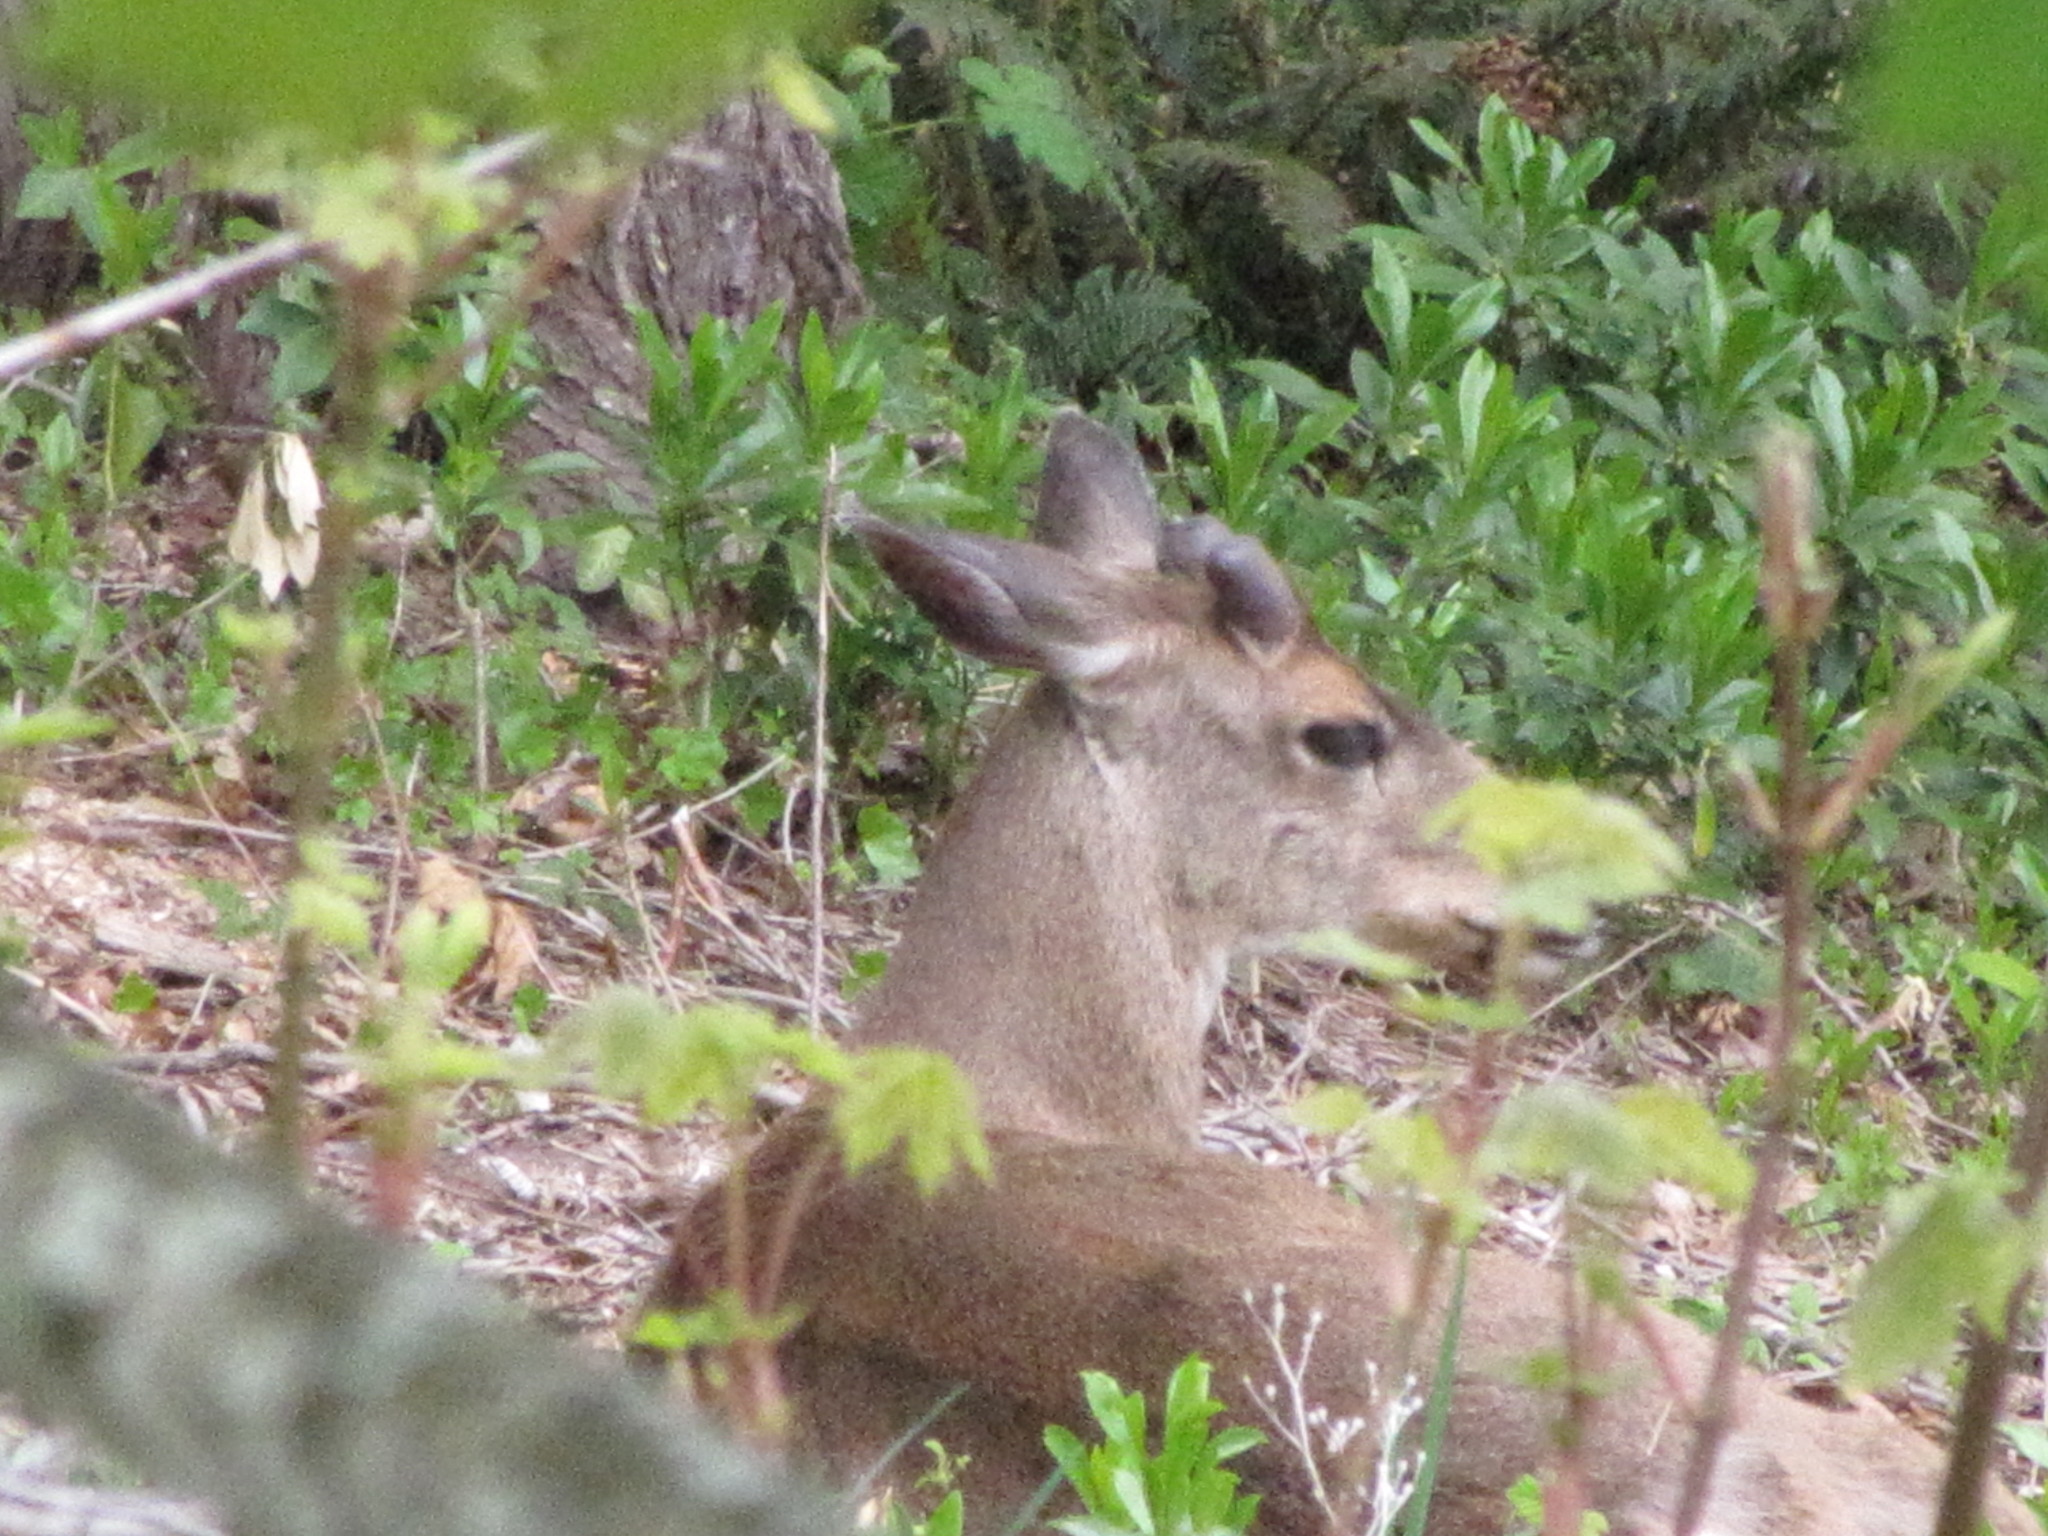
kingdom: Animalia
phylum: Chordata
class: Mammalia
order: Artiodactyla
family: Cervidae
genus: Odocoileus
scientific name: Odocoileus hemionus
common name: Mule deer
